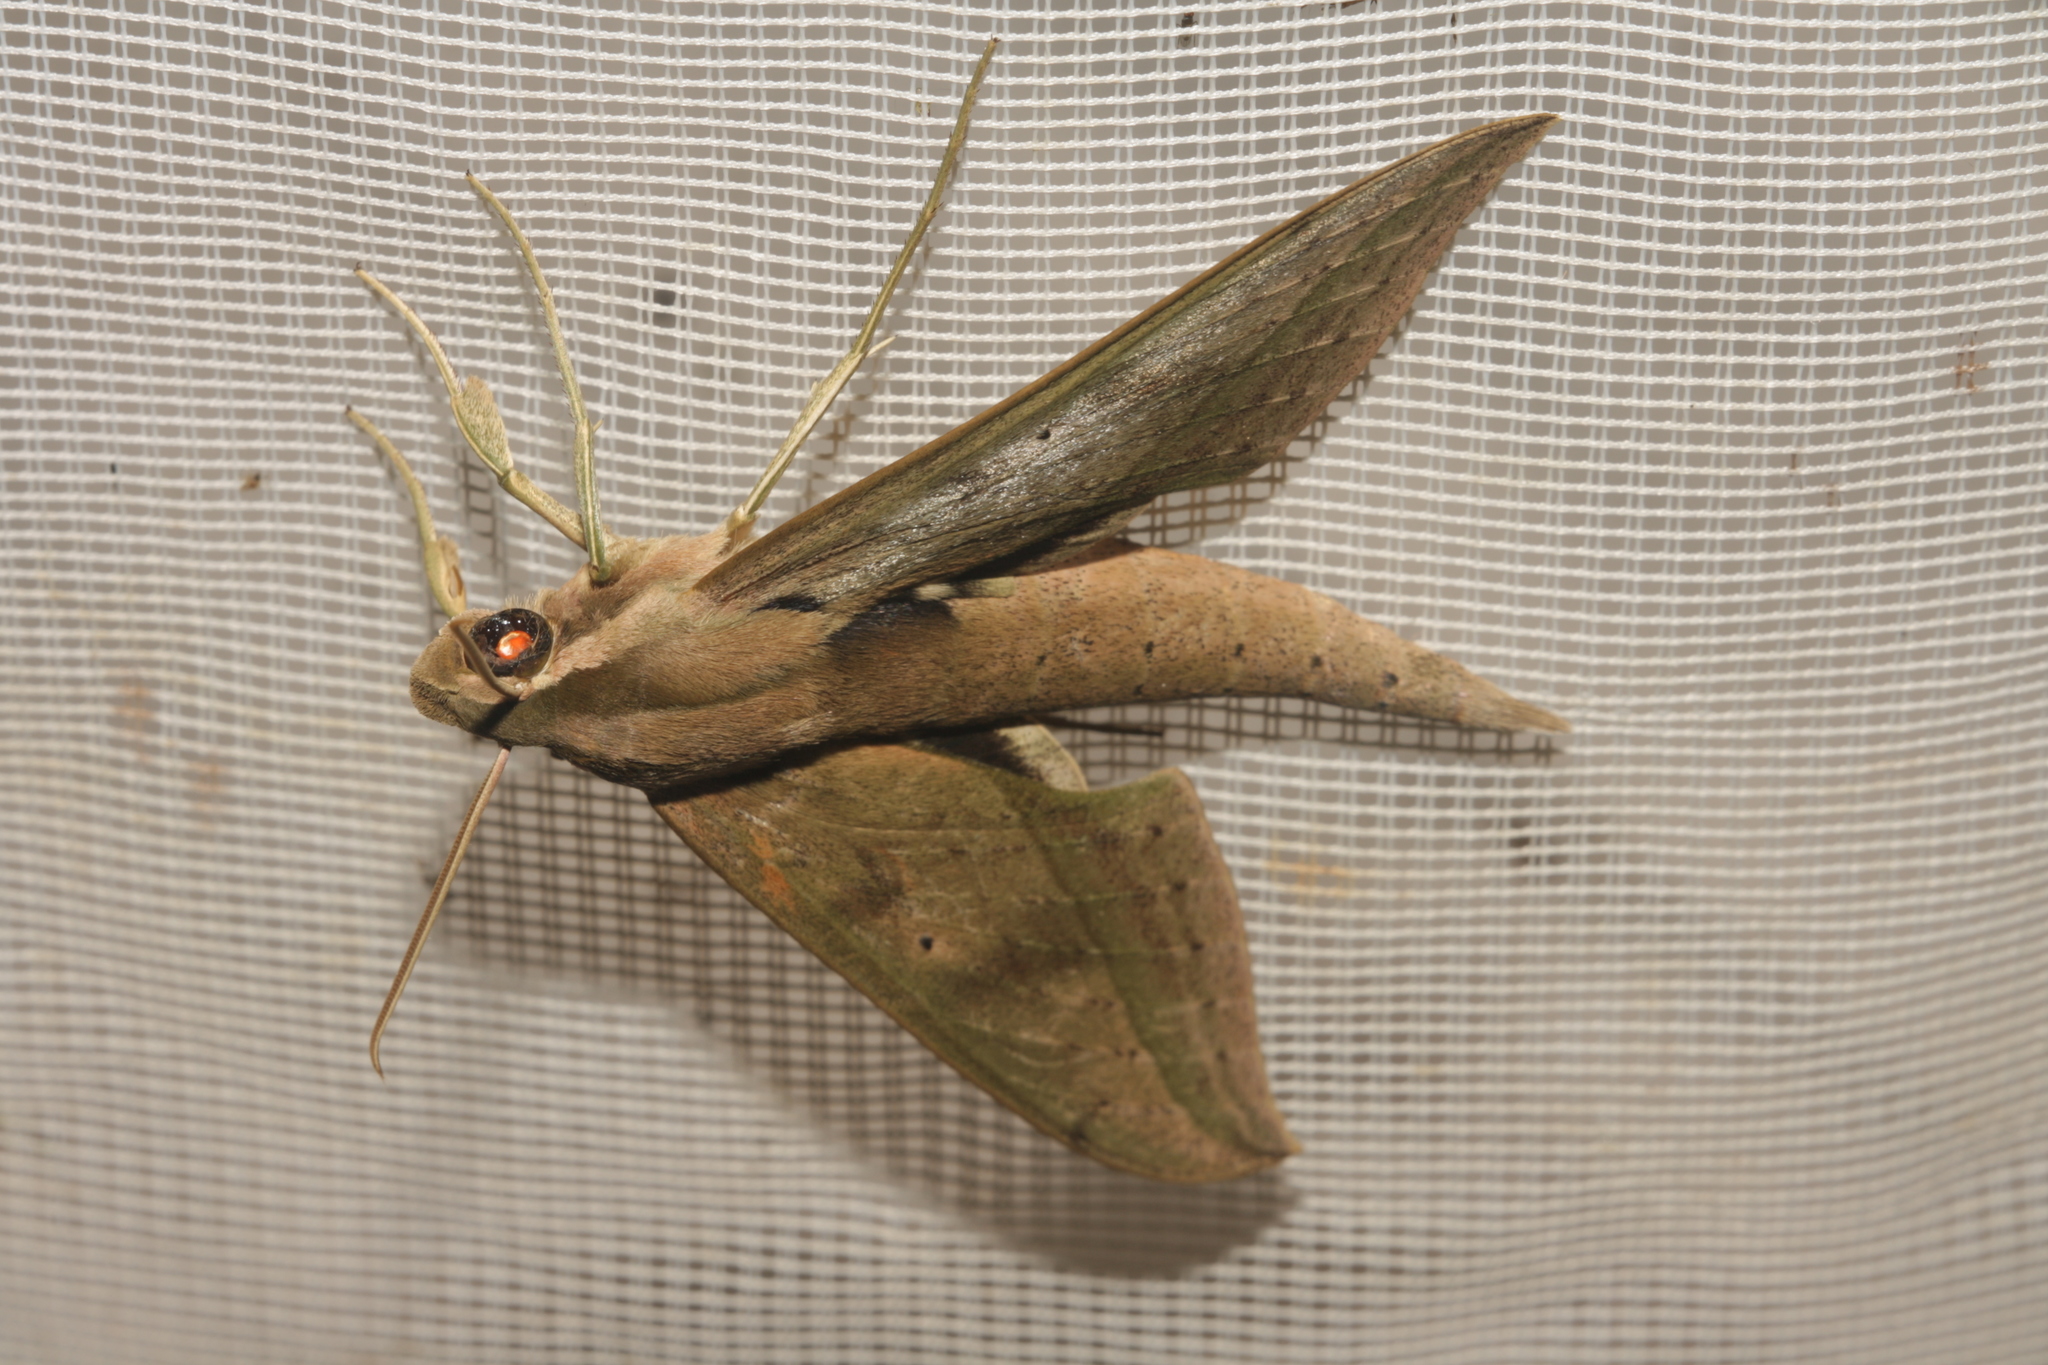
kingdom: Animalia
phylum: Arthropoda
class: Insecta
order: Lepidoptera
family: Sphingidae
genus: Xylophanes
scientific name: Xylophanes anubus
